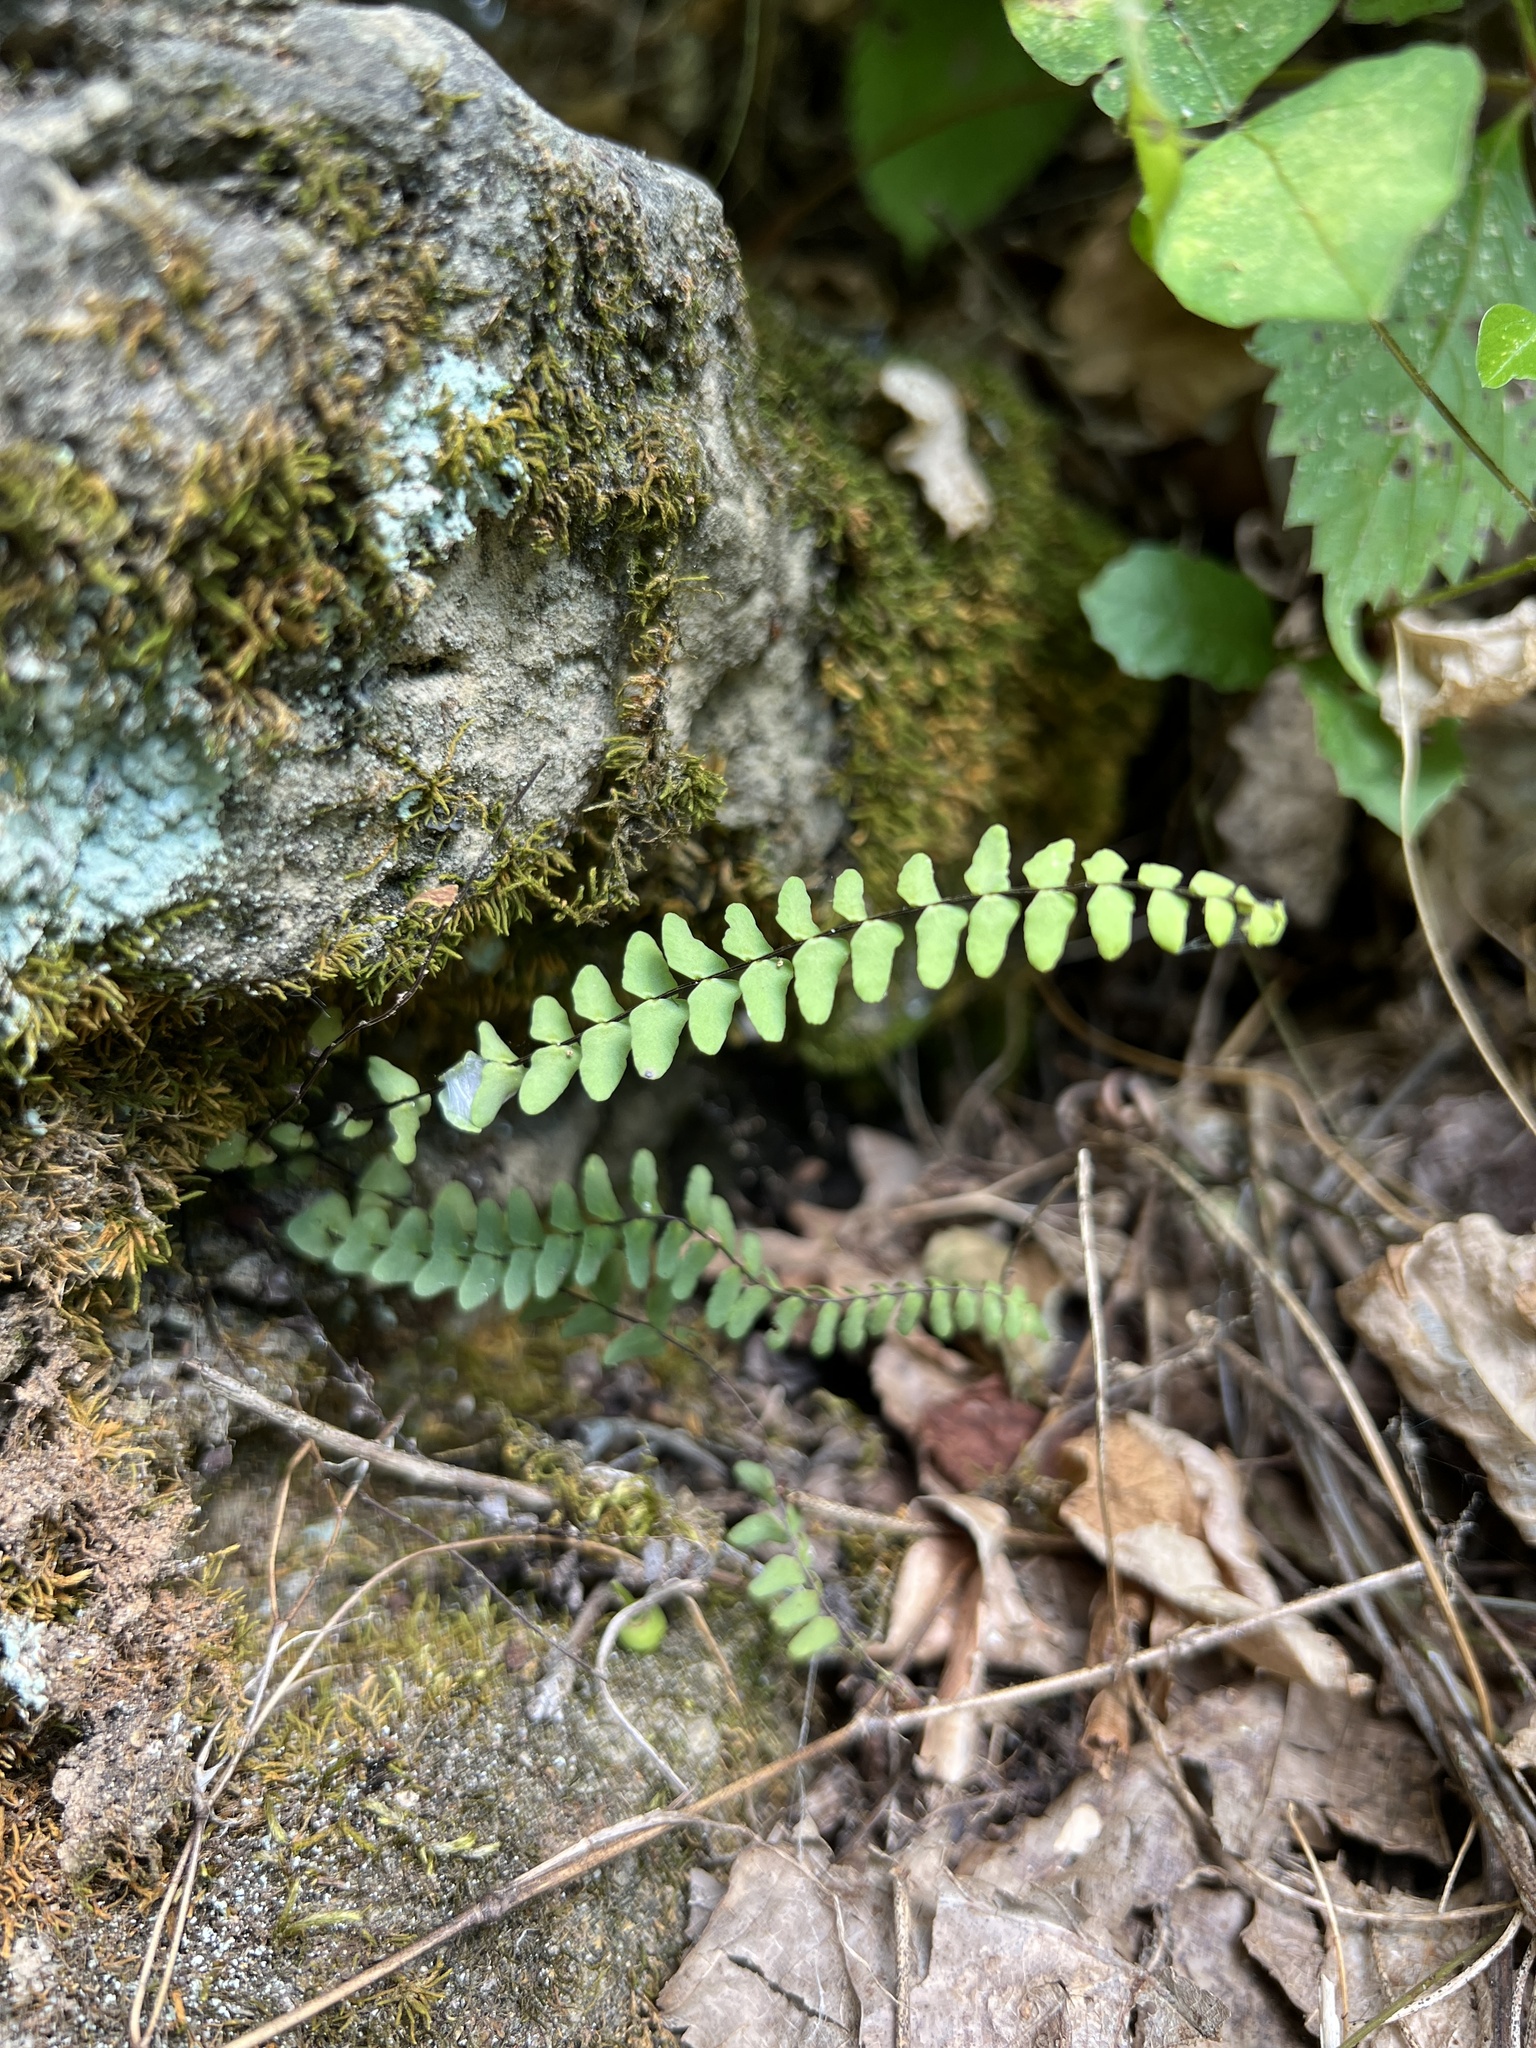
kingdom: Plantae
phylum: Tracheophyta
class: Polypodiopsida
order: Polypodiales
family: Aspleniaceae
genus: Asplenium
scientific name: Asplenium resiliens
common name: Blackstem spleenwort
